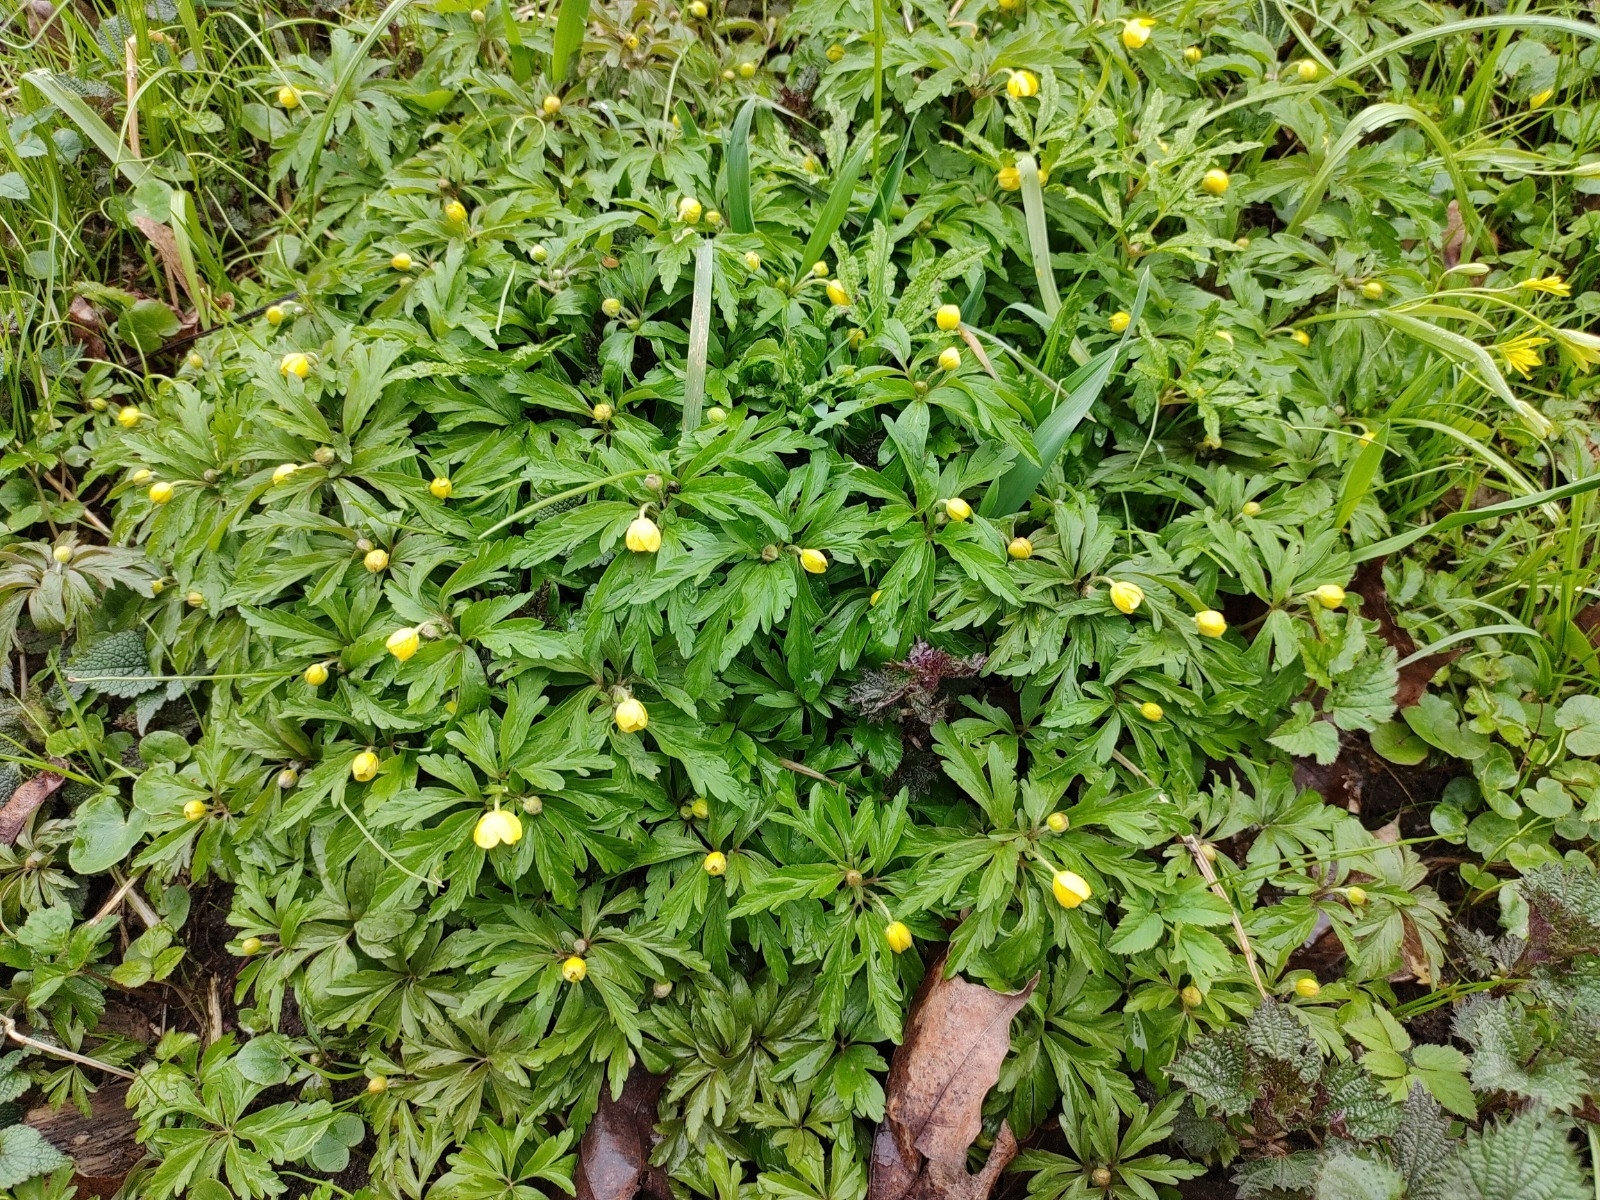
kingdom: Plantae
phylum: Tracheophyta
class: Magnoliopsida
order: Ranunculales
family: Ranunculaceae
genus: Anemone
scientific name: Anemone ranunculoides
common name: Yellow anemone
